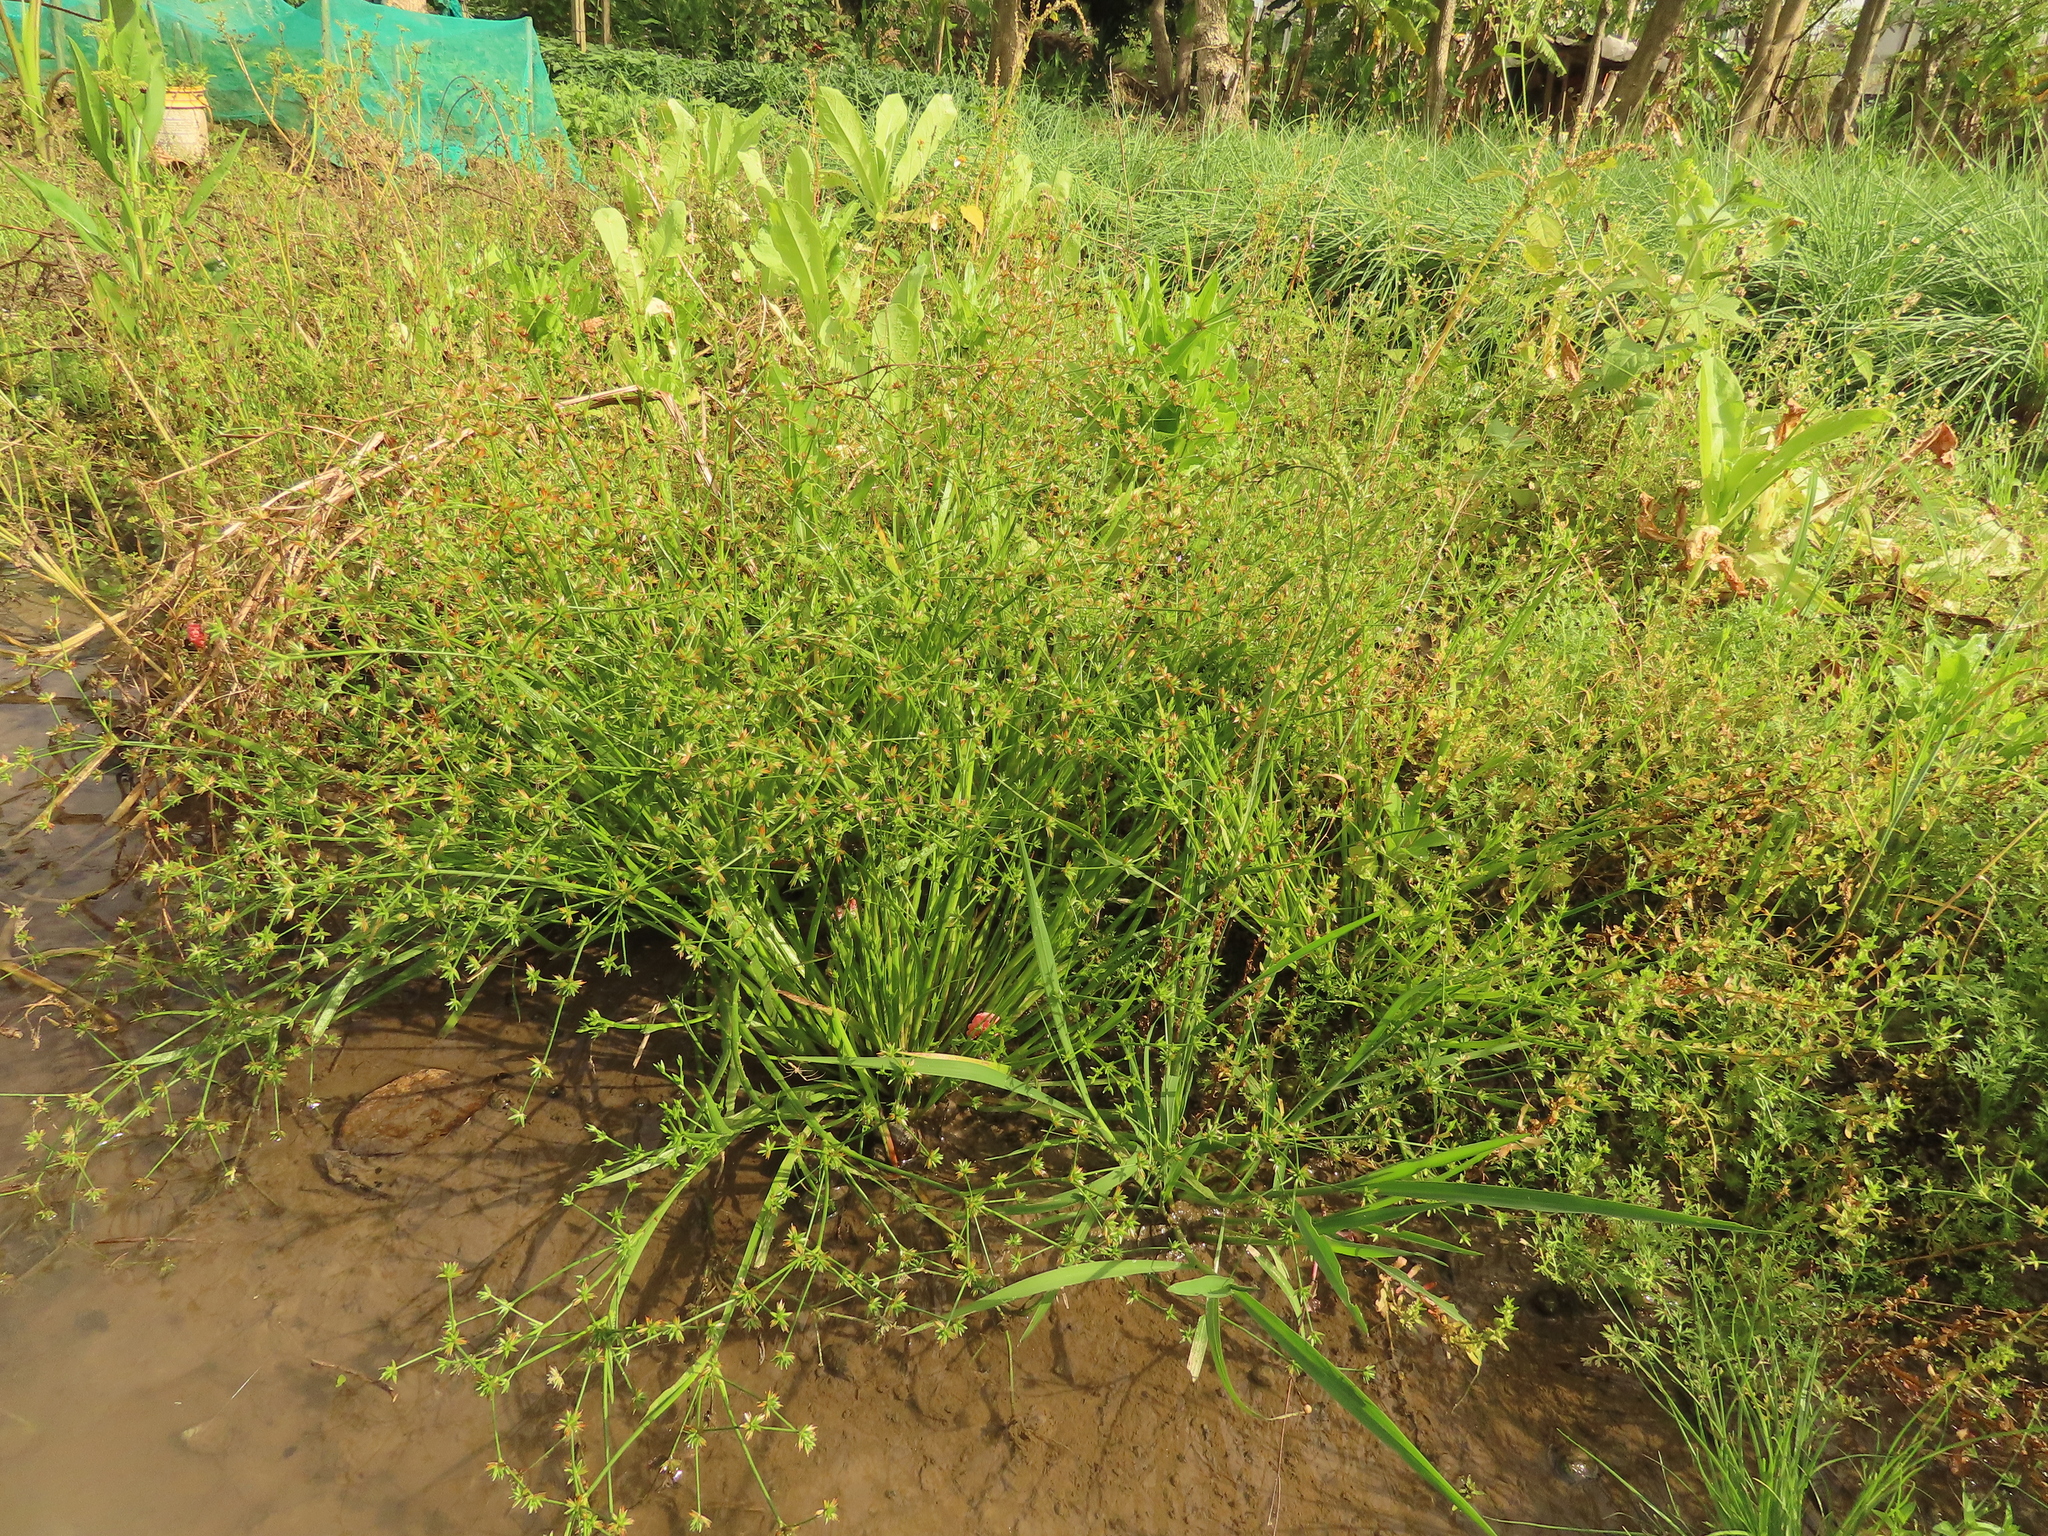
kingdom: Plantae
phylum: Tracheophyta
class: Liliopsida
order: Poales
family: Juncaceae
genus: Juncus
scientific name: Juncus prismatocarpus
